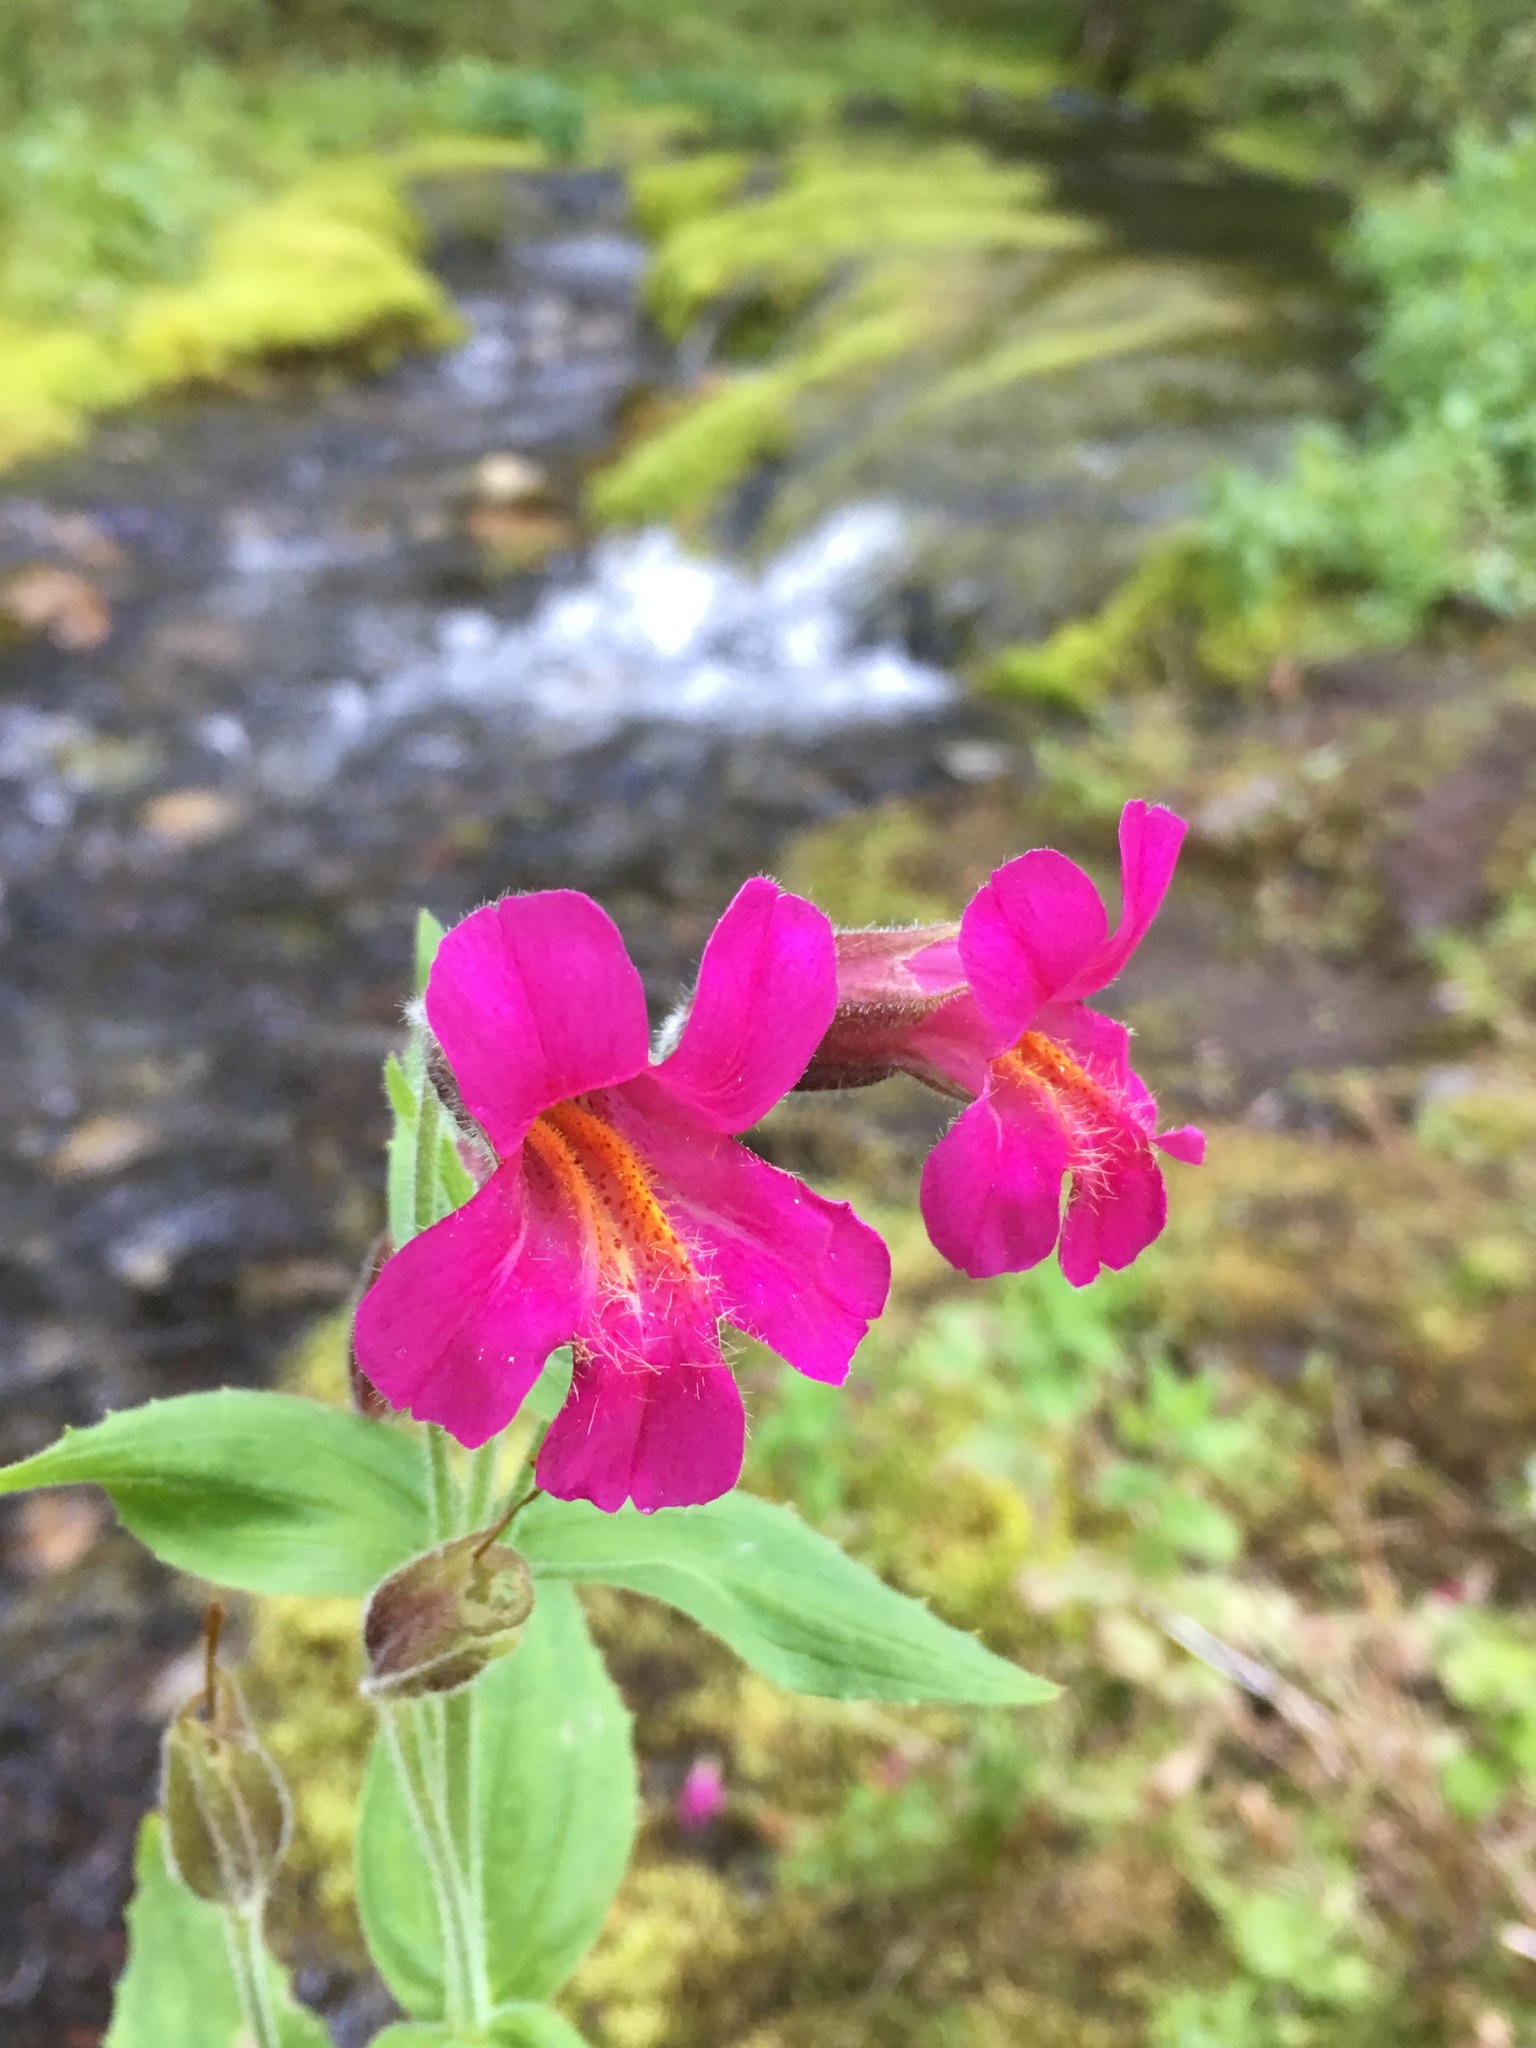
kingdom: Plantae
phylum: Tracheophyta
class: Magnoliopsida
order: Lamiales
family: Phrymaceae
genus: Erythranthe
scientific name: Erythranthe lewisii
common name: Lewis's monkey-flower
